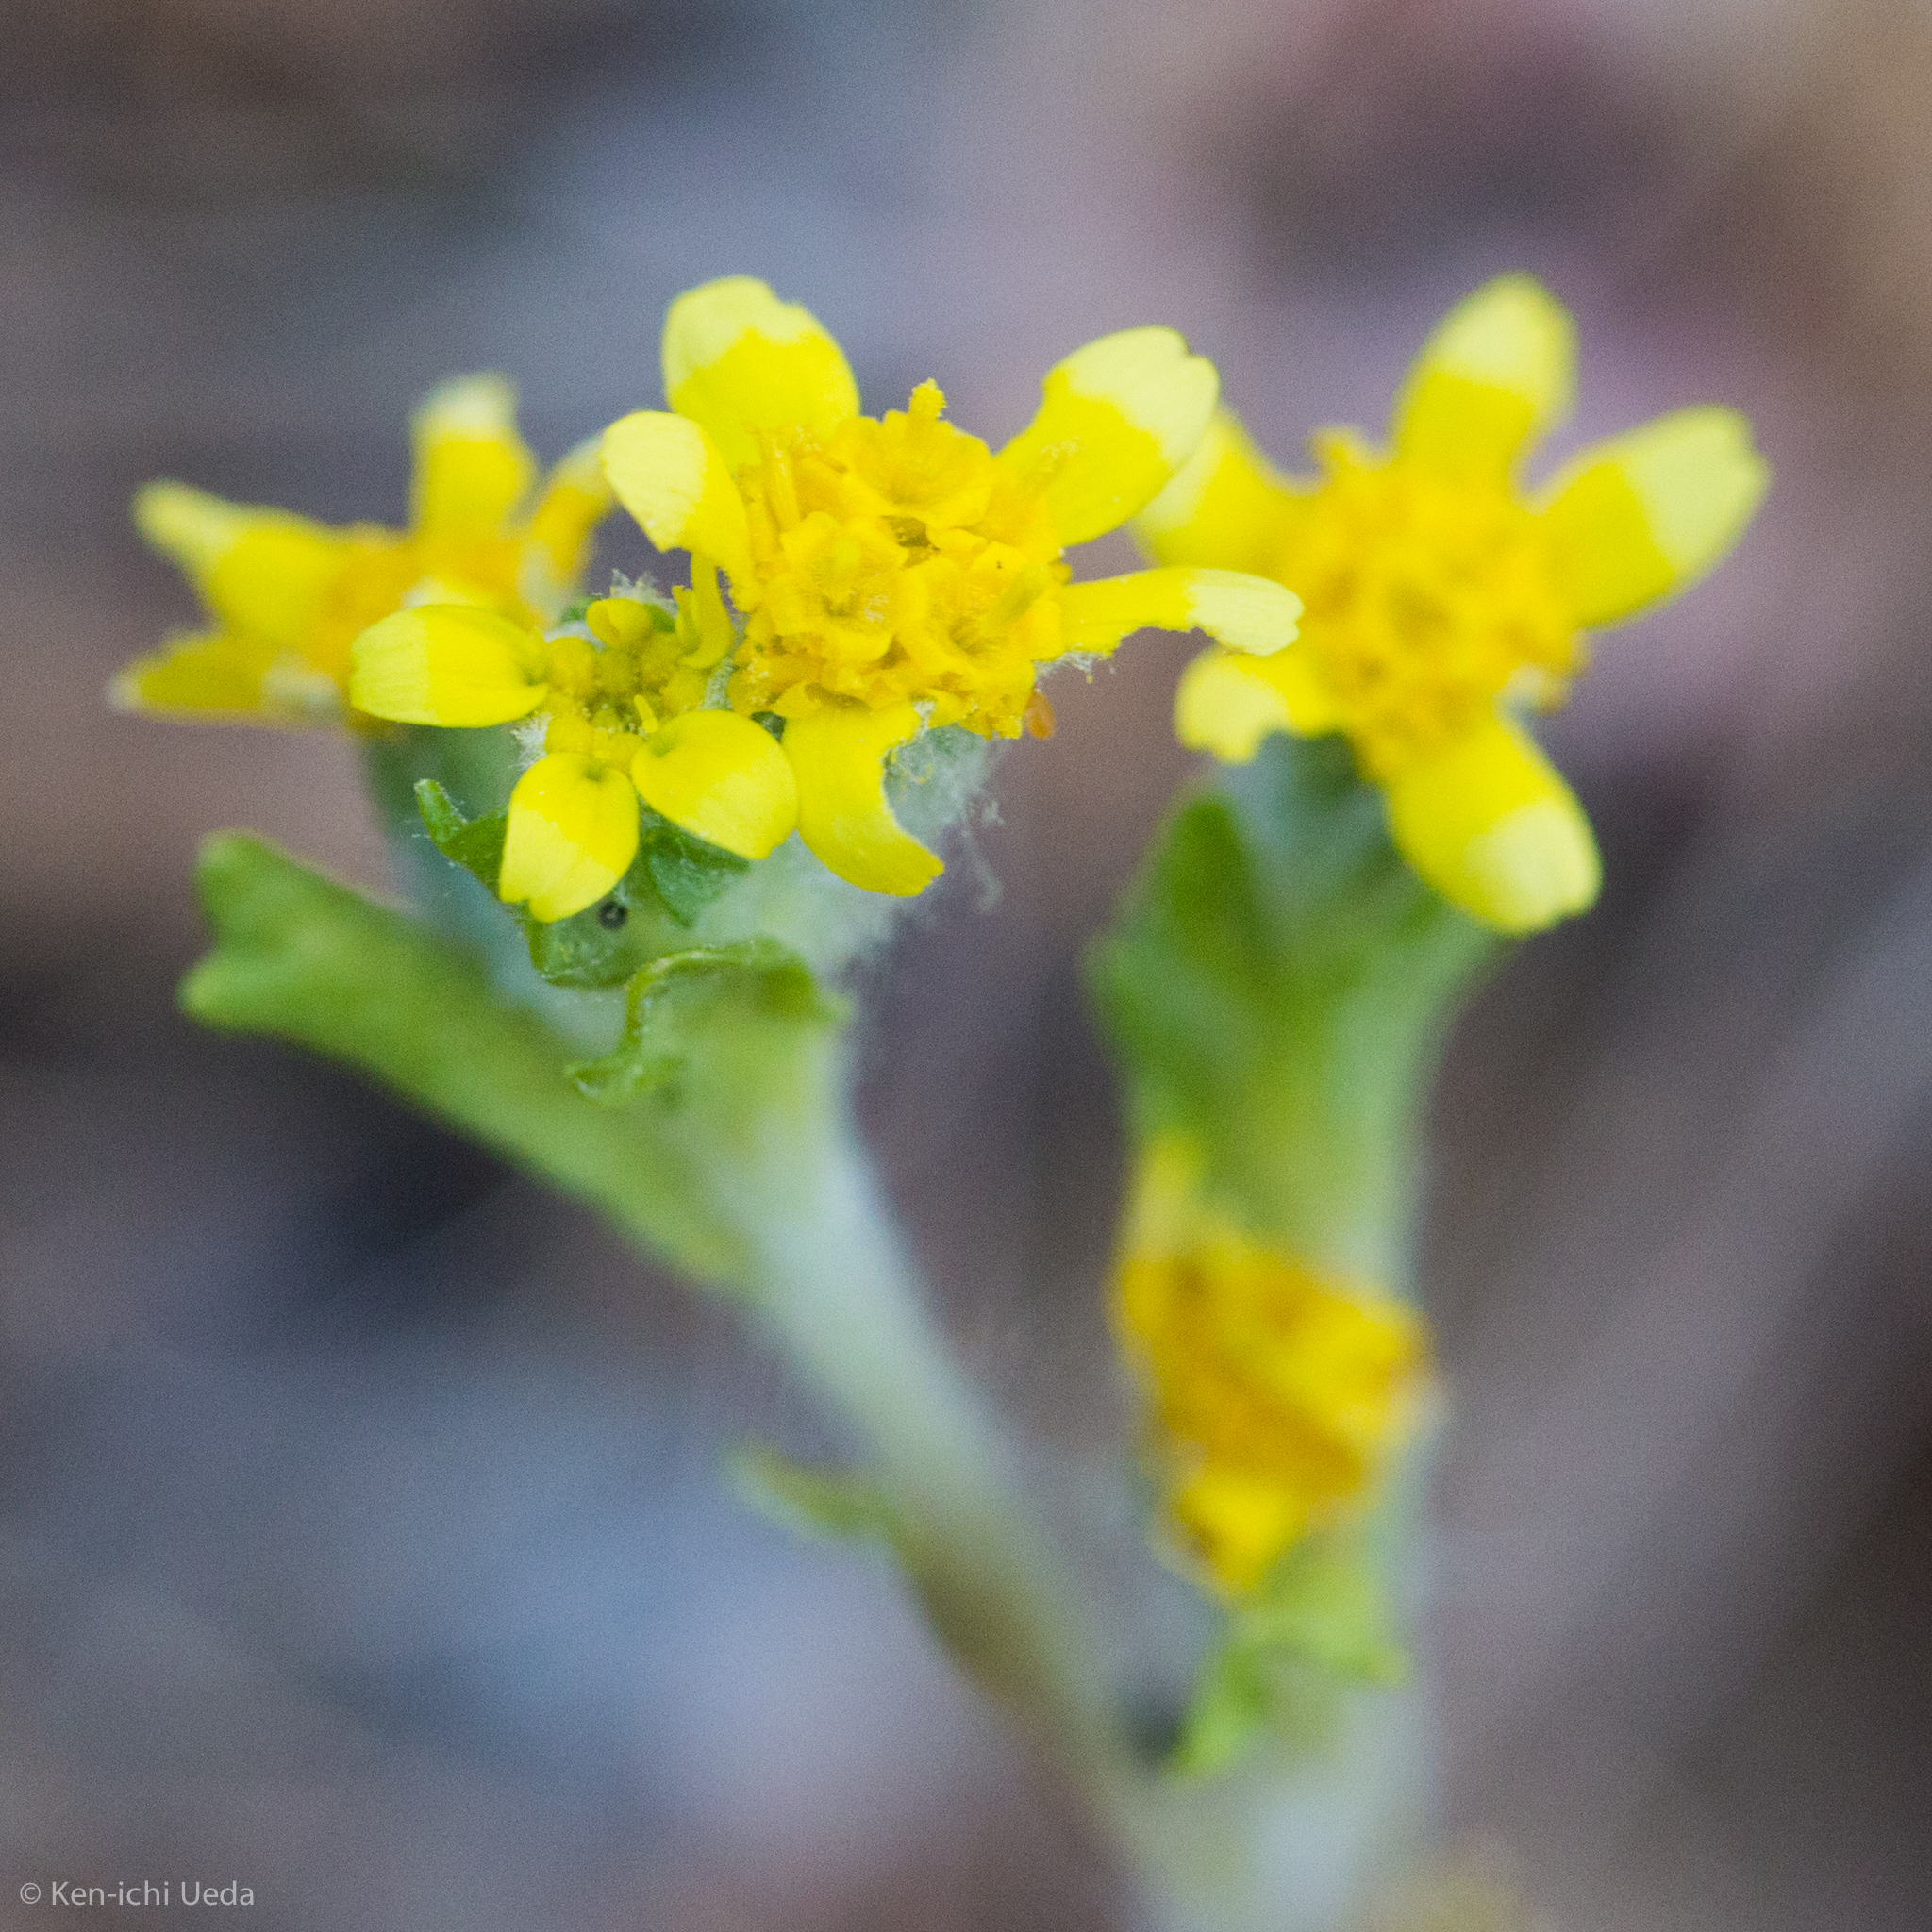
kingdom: Plantae
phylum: Tracheophyta
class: Magnoliopsida
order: Asterales
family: Asteraceae
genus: Eriophyllum
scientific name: Eriophyllum multicaule
